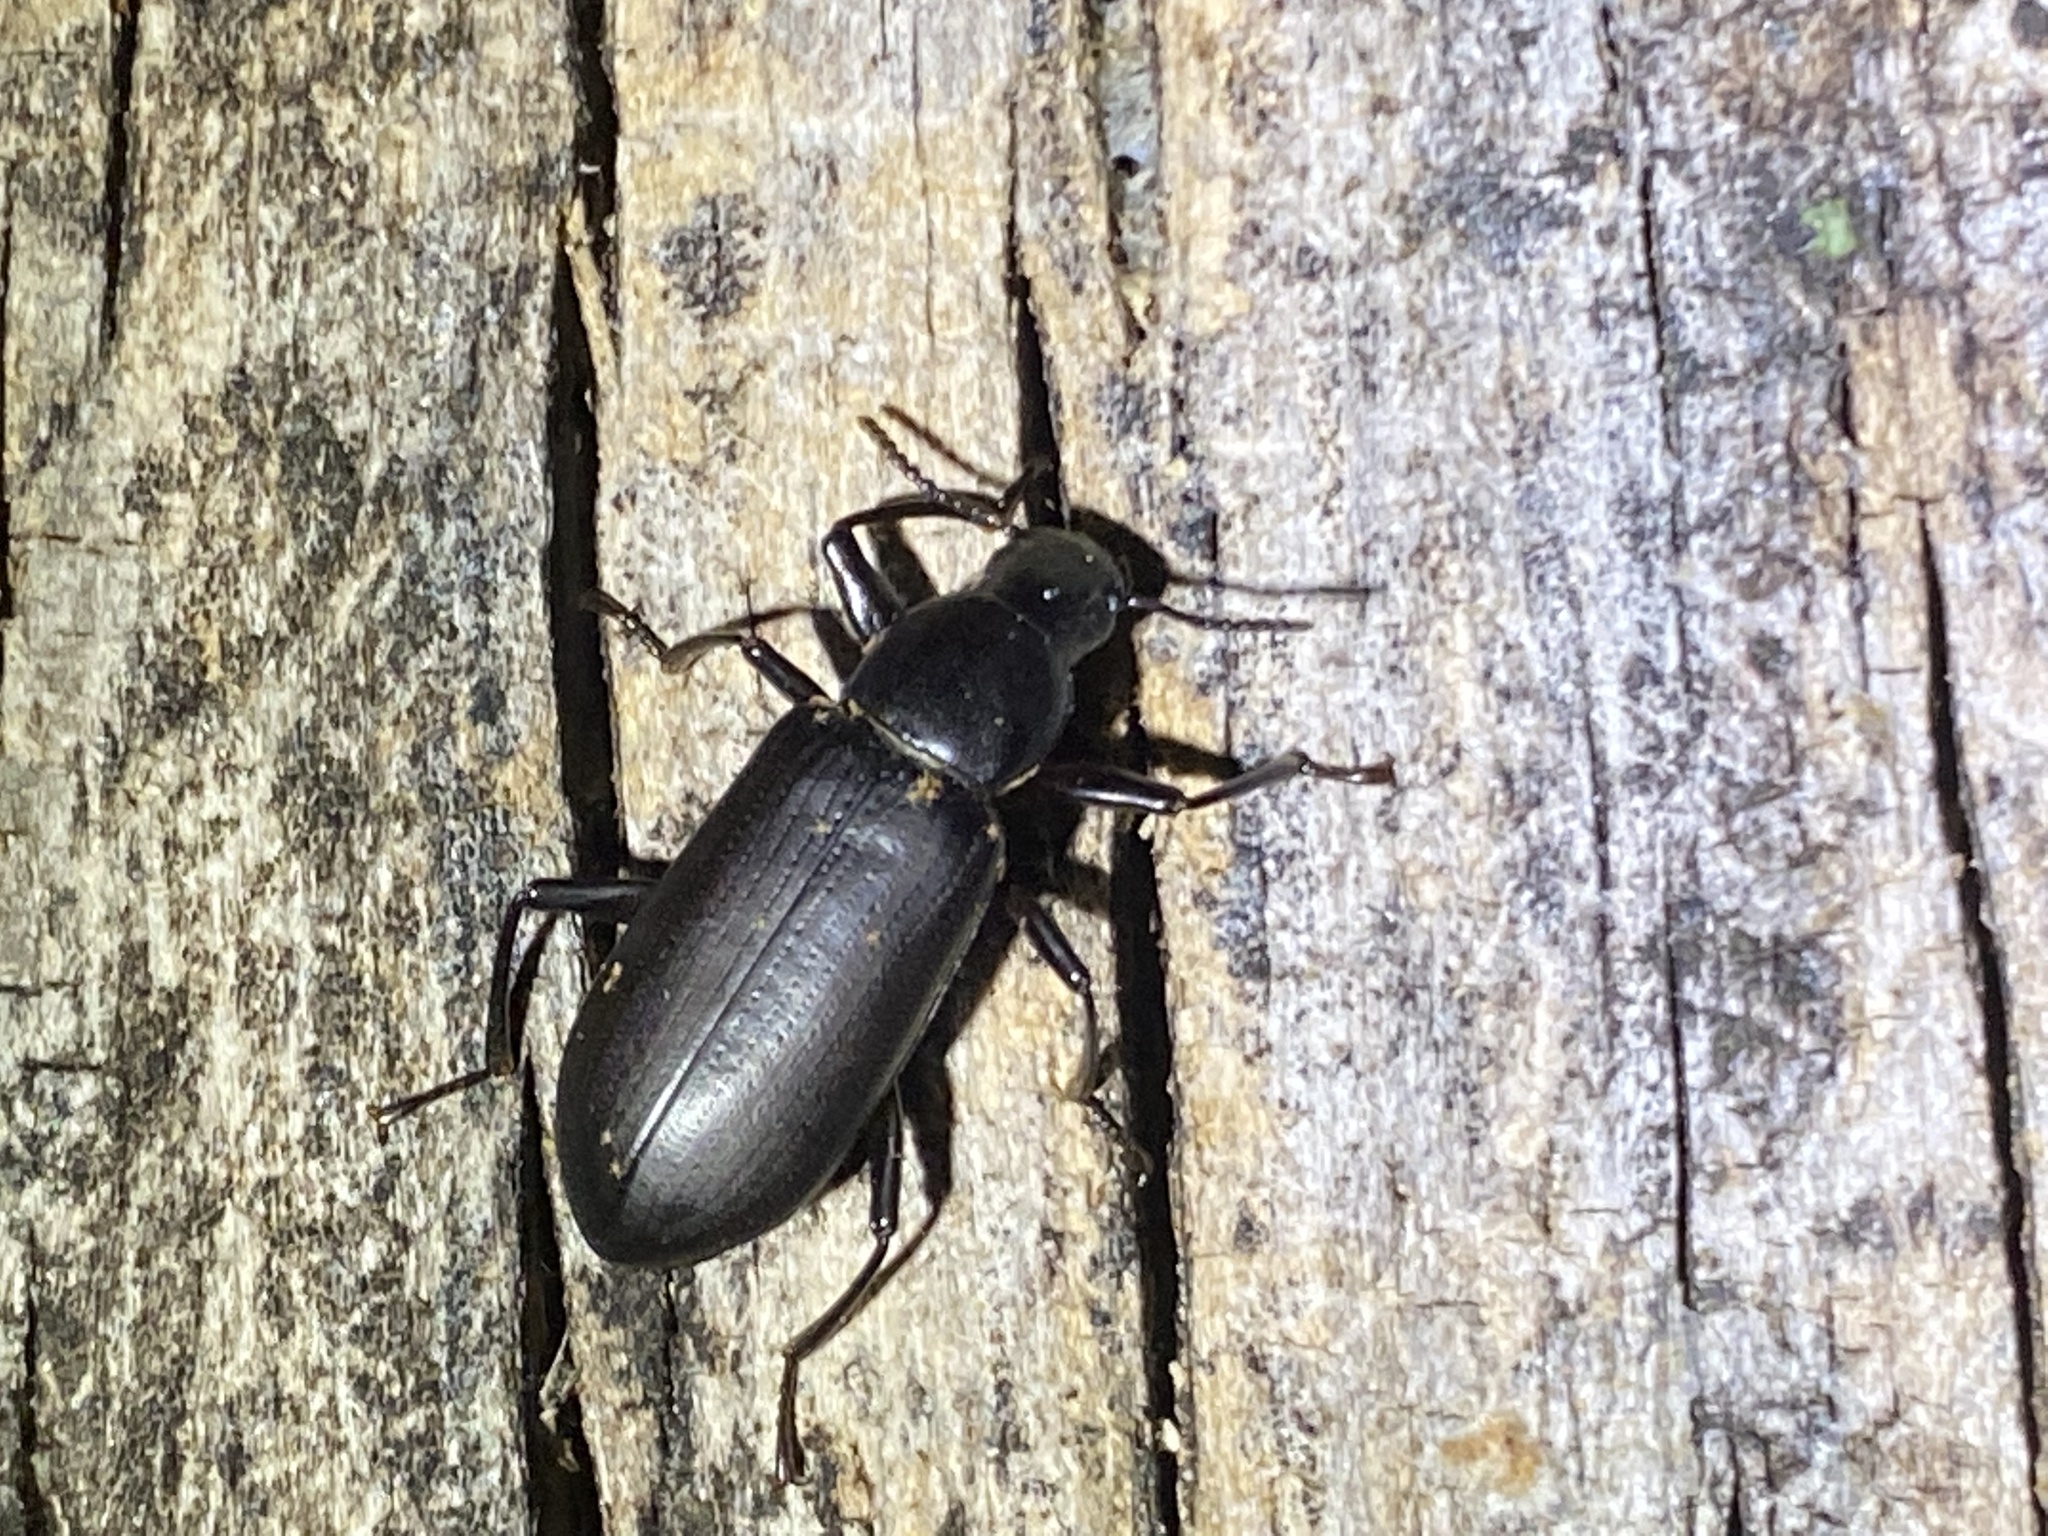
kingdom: Animalia
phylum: Arthropoda
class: Insecta
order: Coleoptera
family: Tenebrionidae
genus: Alobates
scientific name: Alobates pensylvanicus
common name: False mealworm beetle
